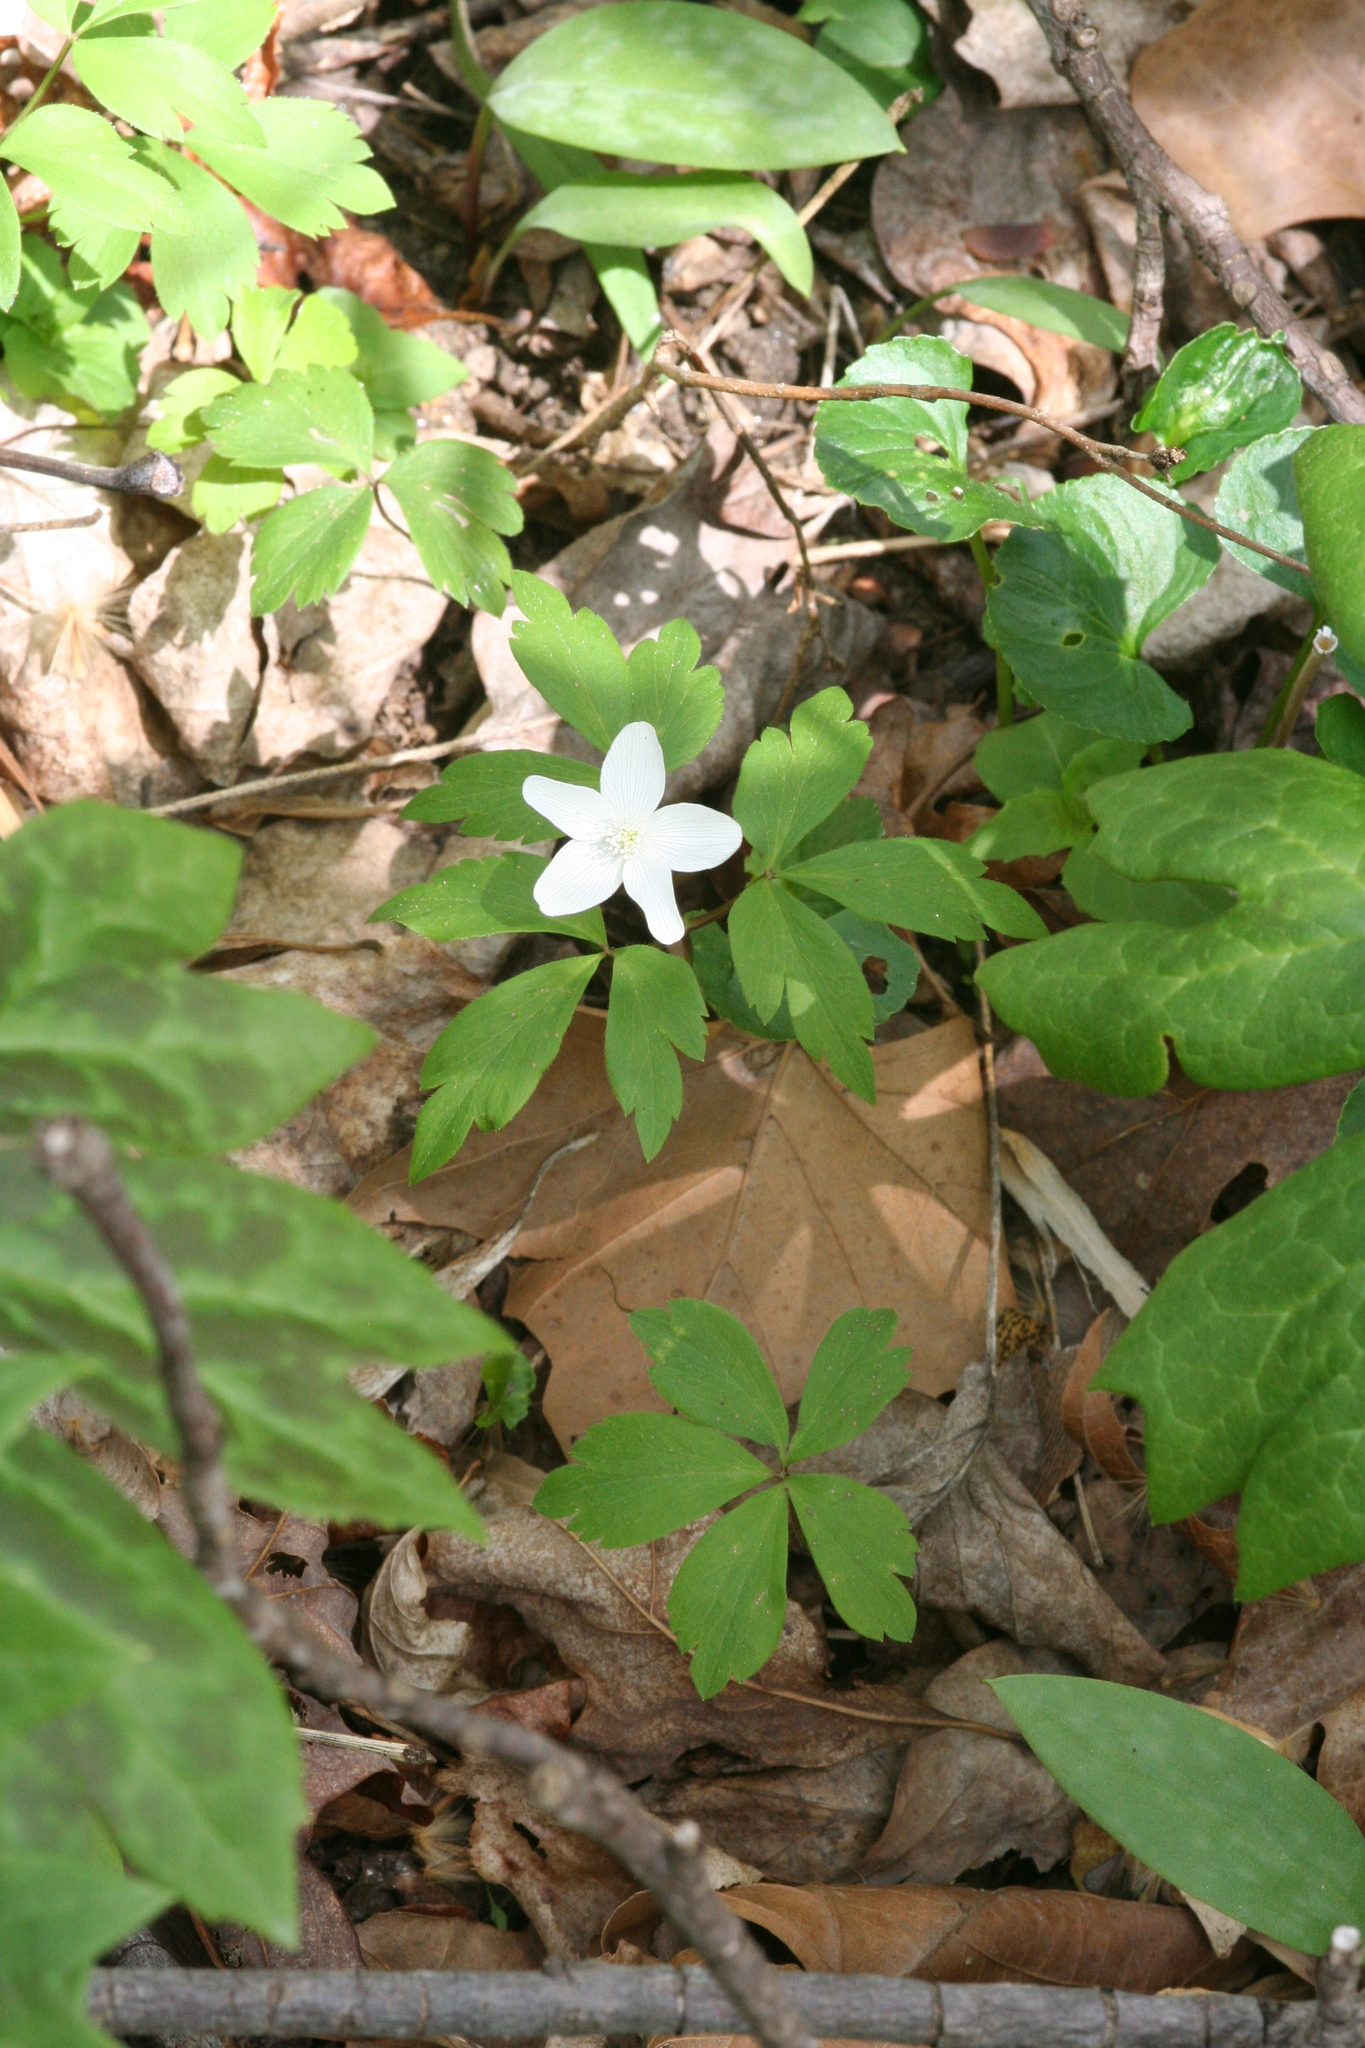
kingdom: Plantae
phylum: Tracheophyta
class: Magnoliopsida
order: Ranunculales
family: Ranunculaceae
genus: Anemone
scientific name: Anemone quinquefolia
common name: Wood anemone
